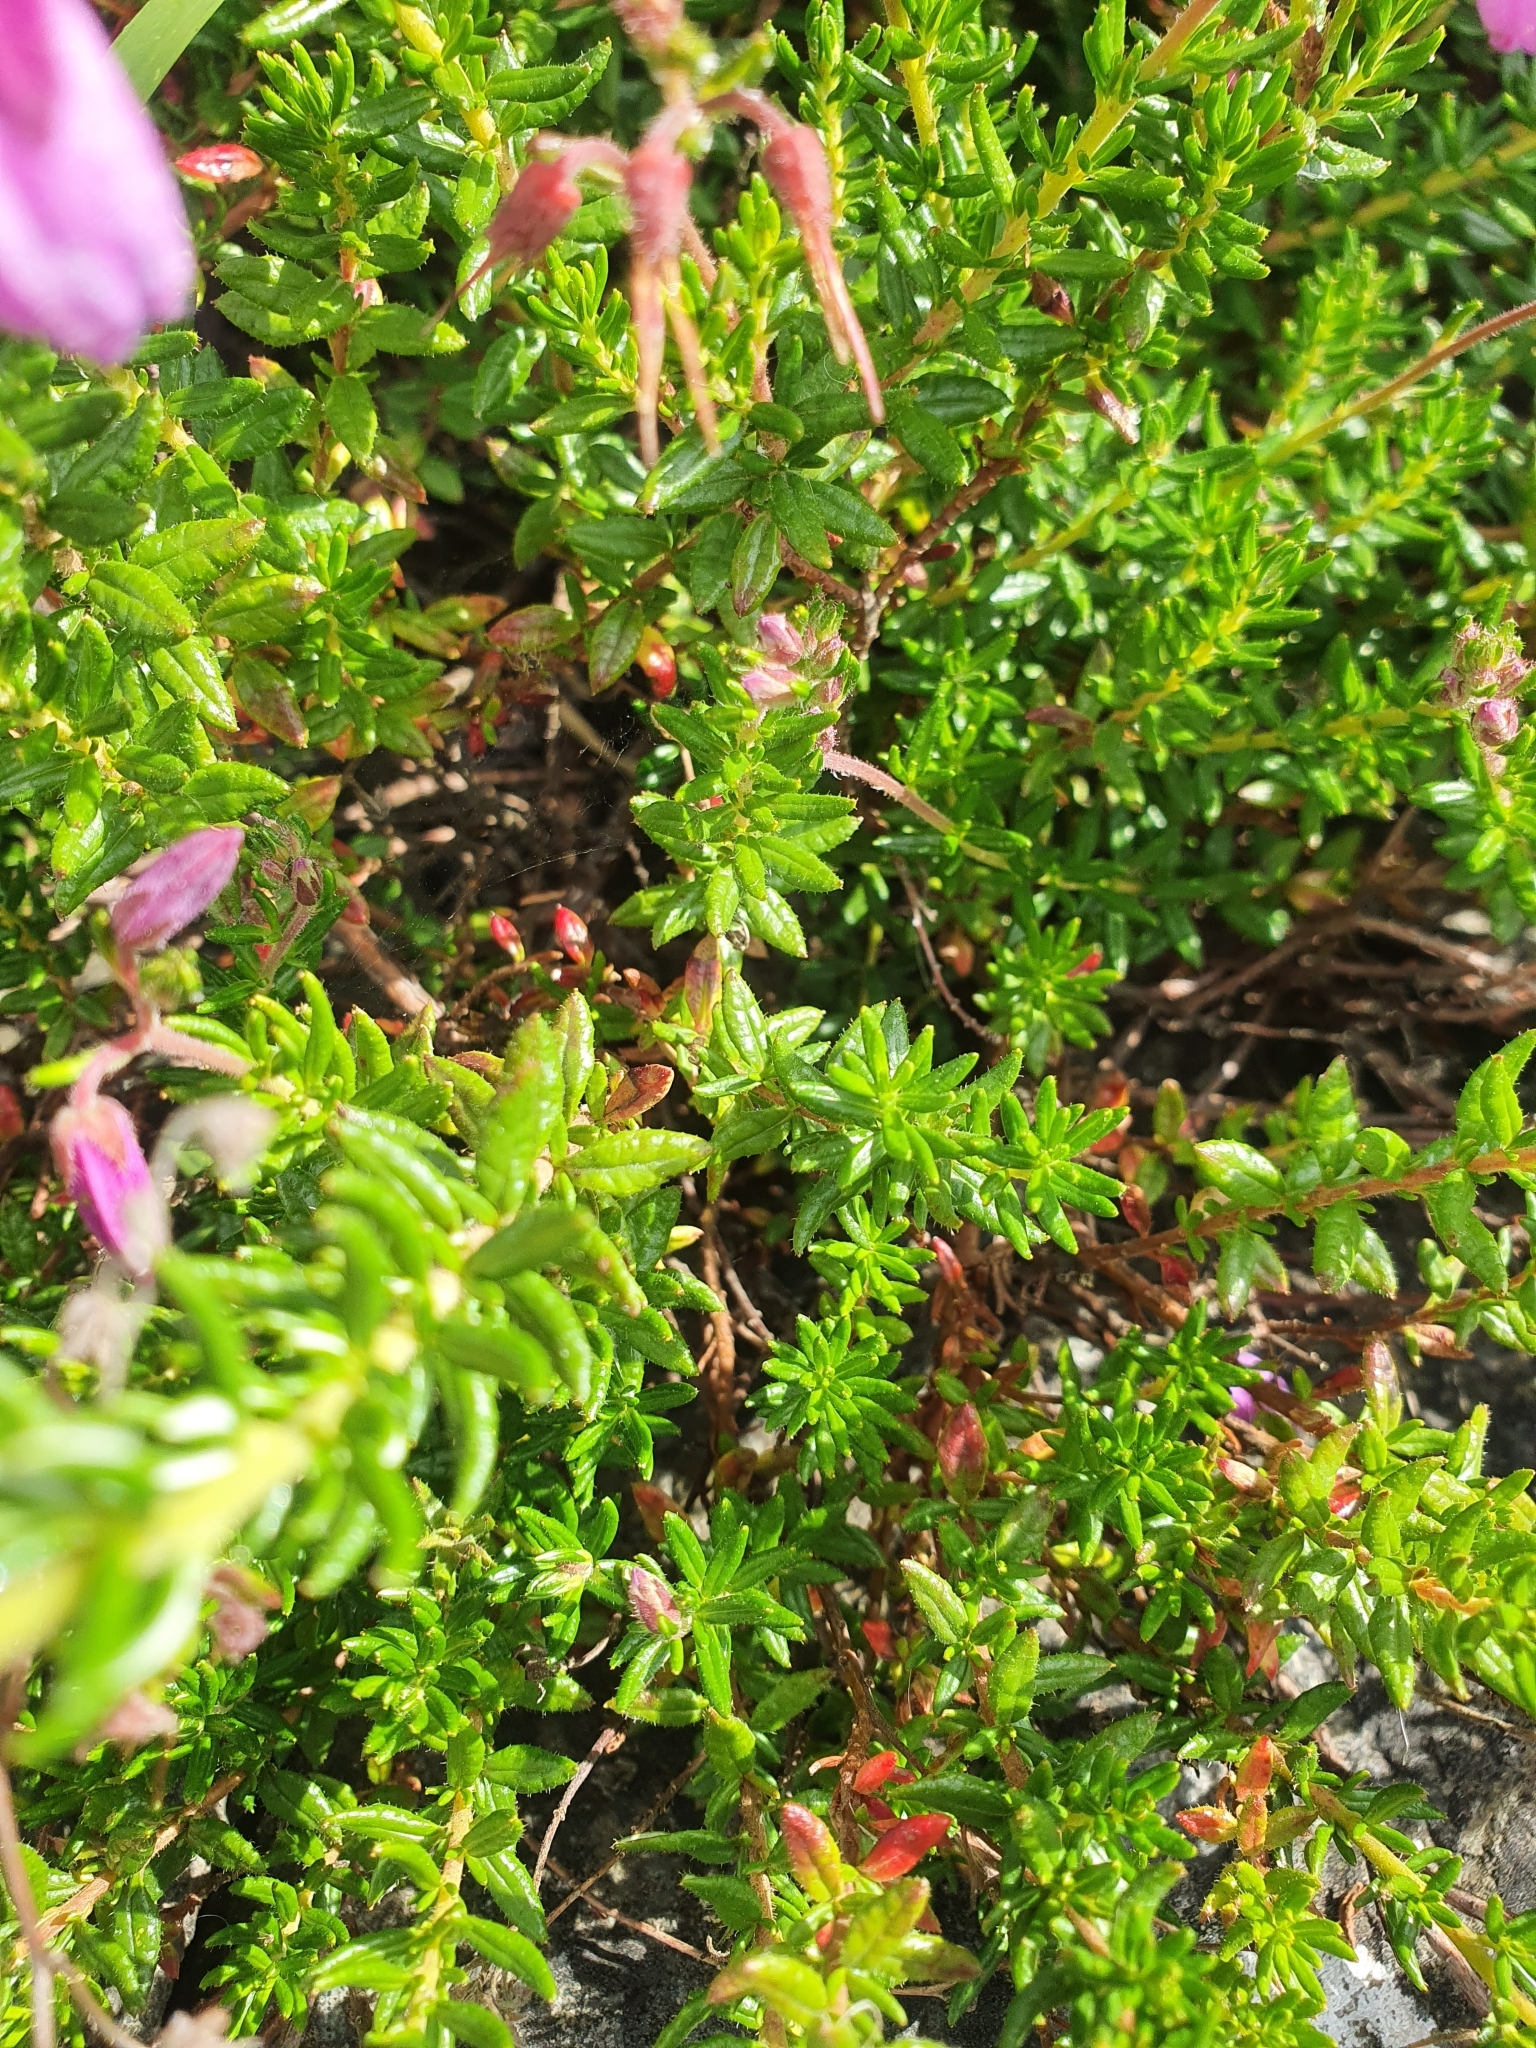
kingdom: Plantae
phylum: Tracheophyta
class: Magnoliopsida
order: Ericales
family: Ericaceae
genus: Daboecia
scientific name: Daboecia cantabrica
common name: St. dabeoc's-heath
